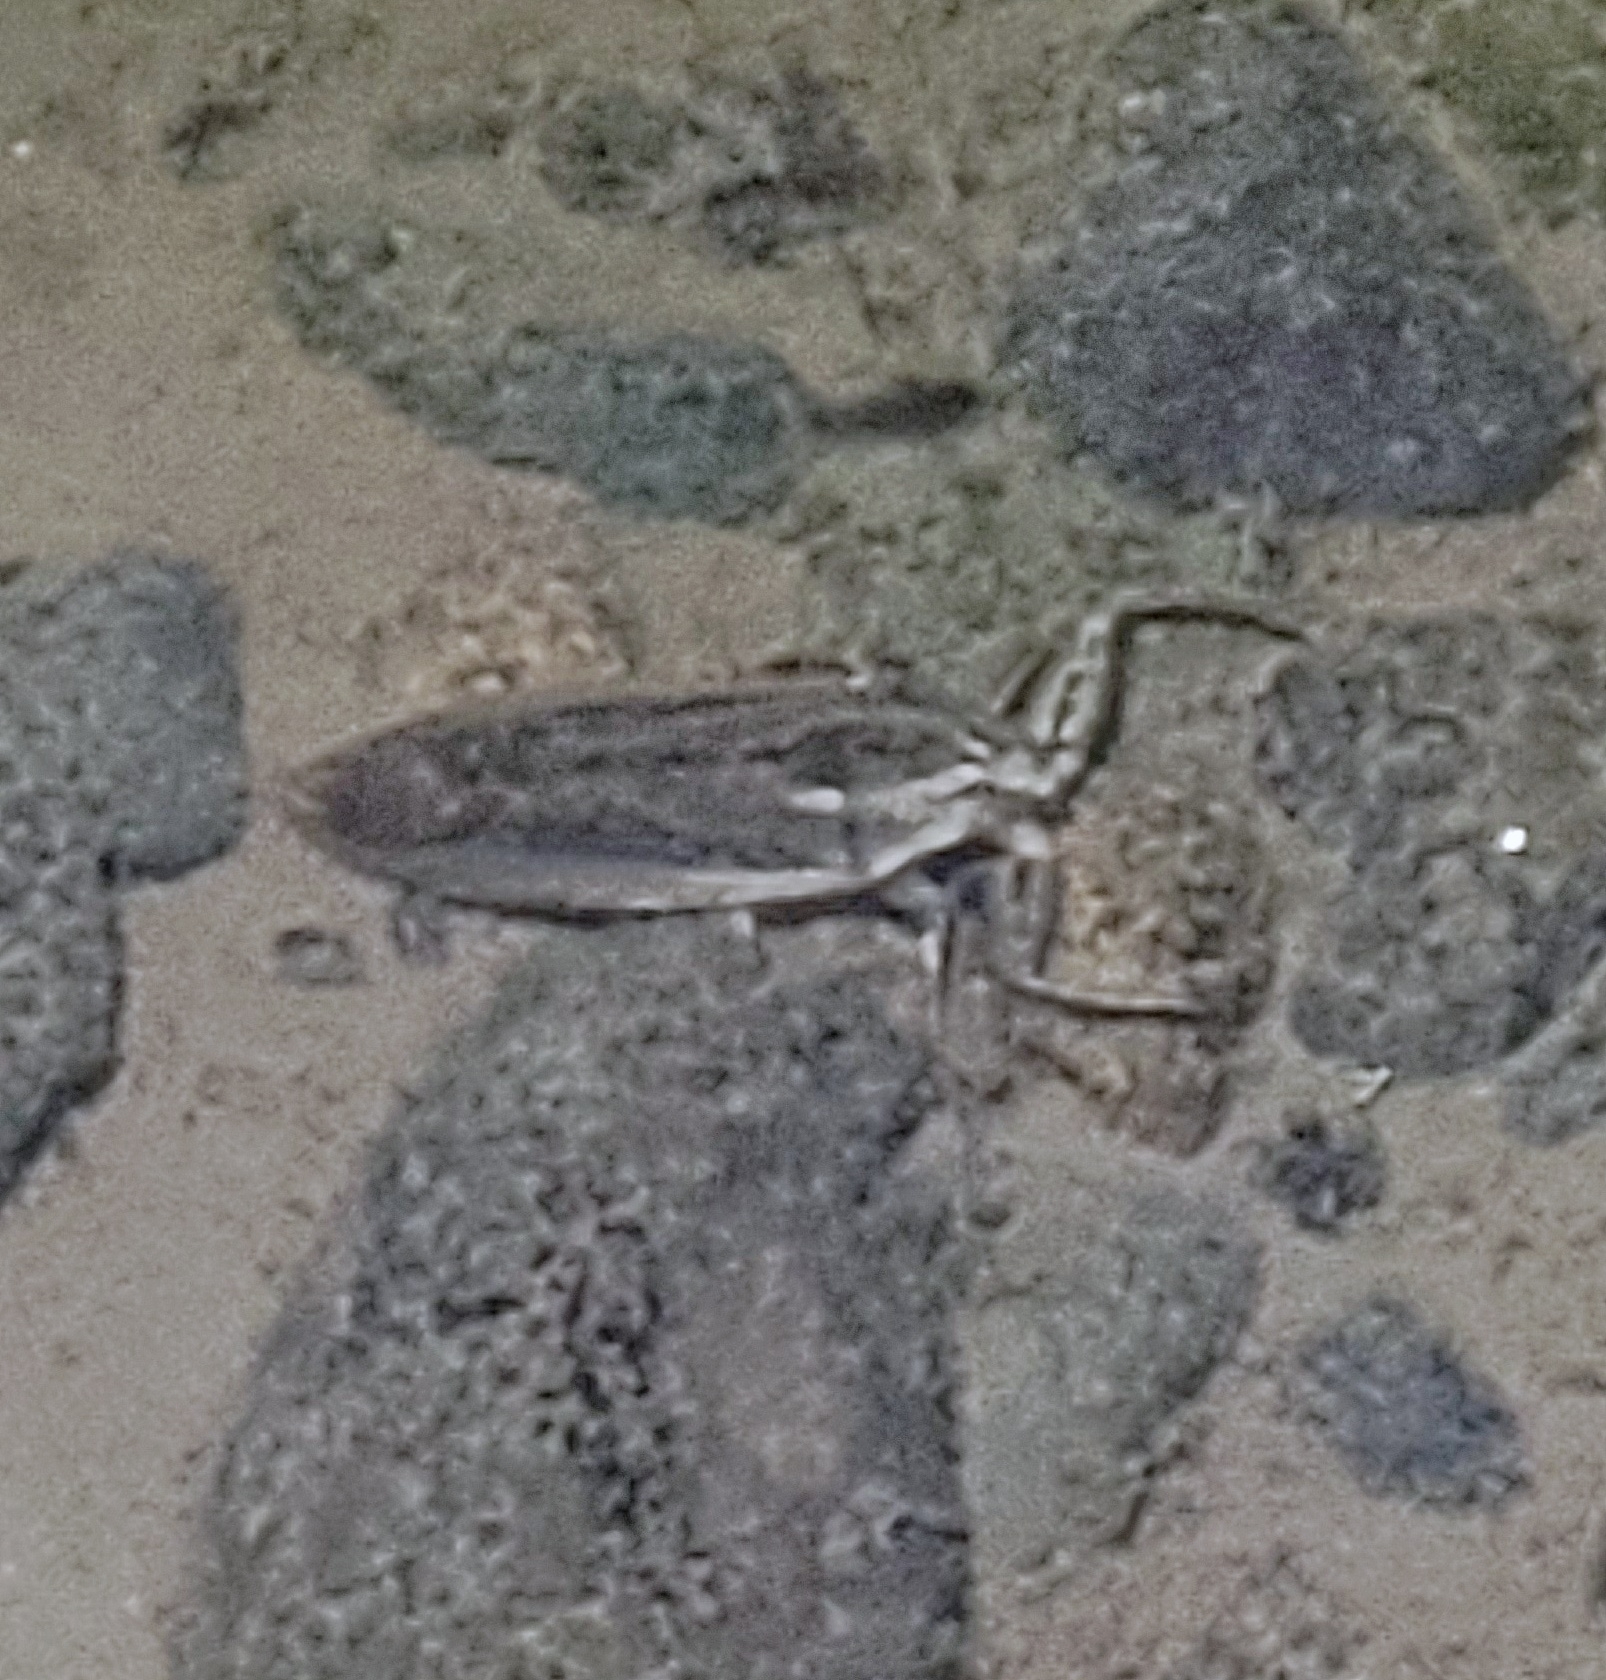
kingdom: Animalia
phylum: Arthropoda
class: Insecta
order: Hemiptera
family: Belostomatidae
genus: Lethocerus
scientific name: Lethocerus americanus
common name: Giant water bug
